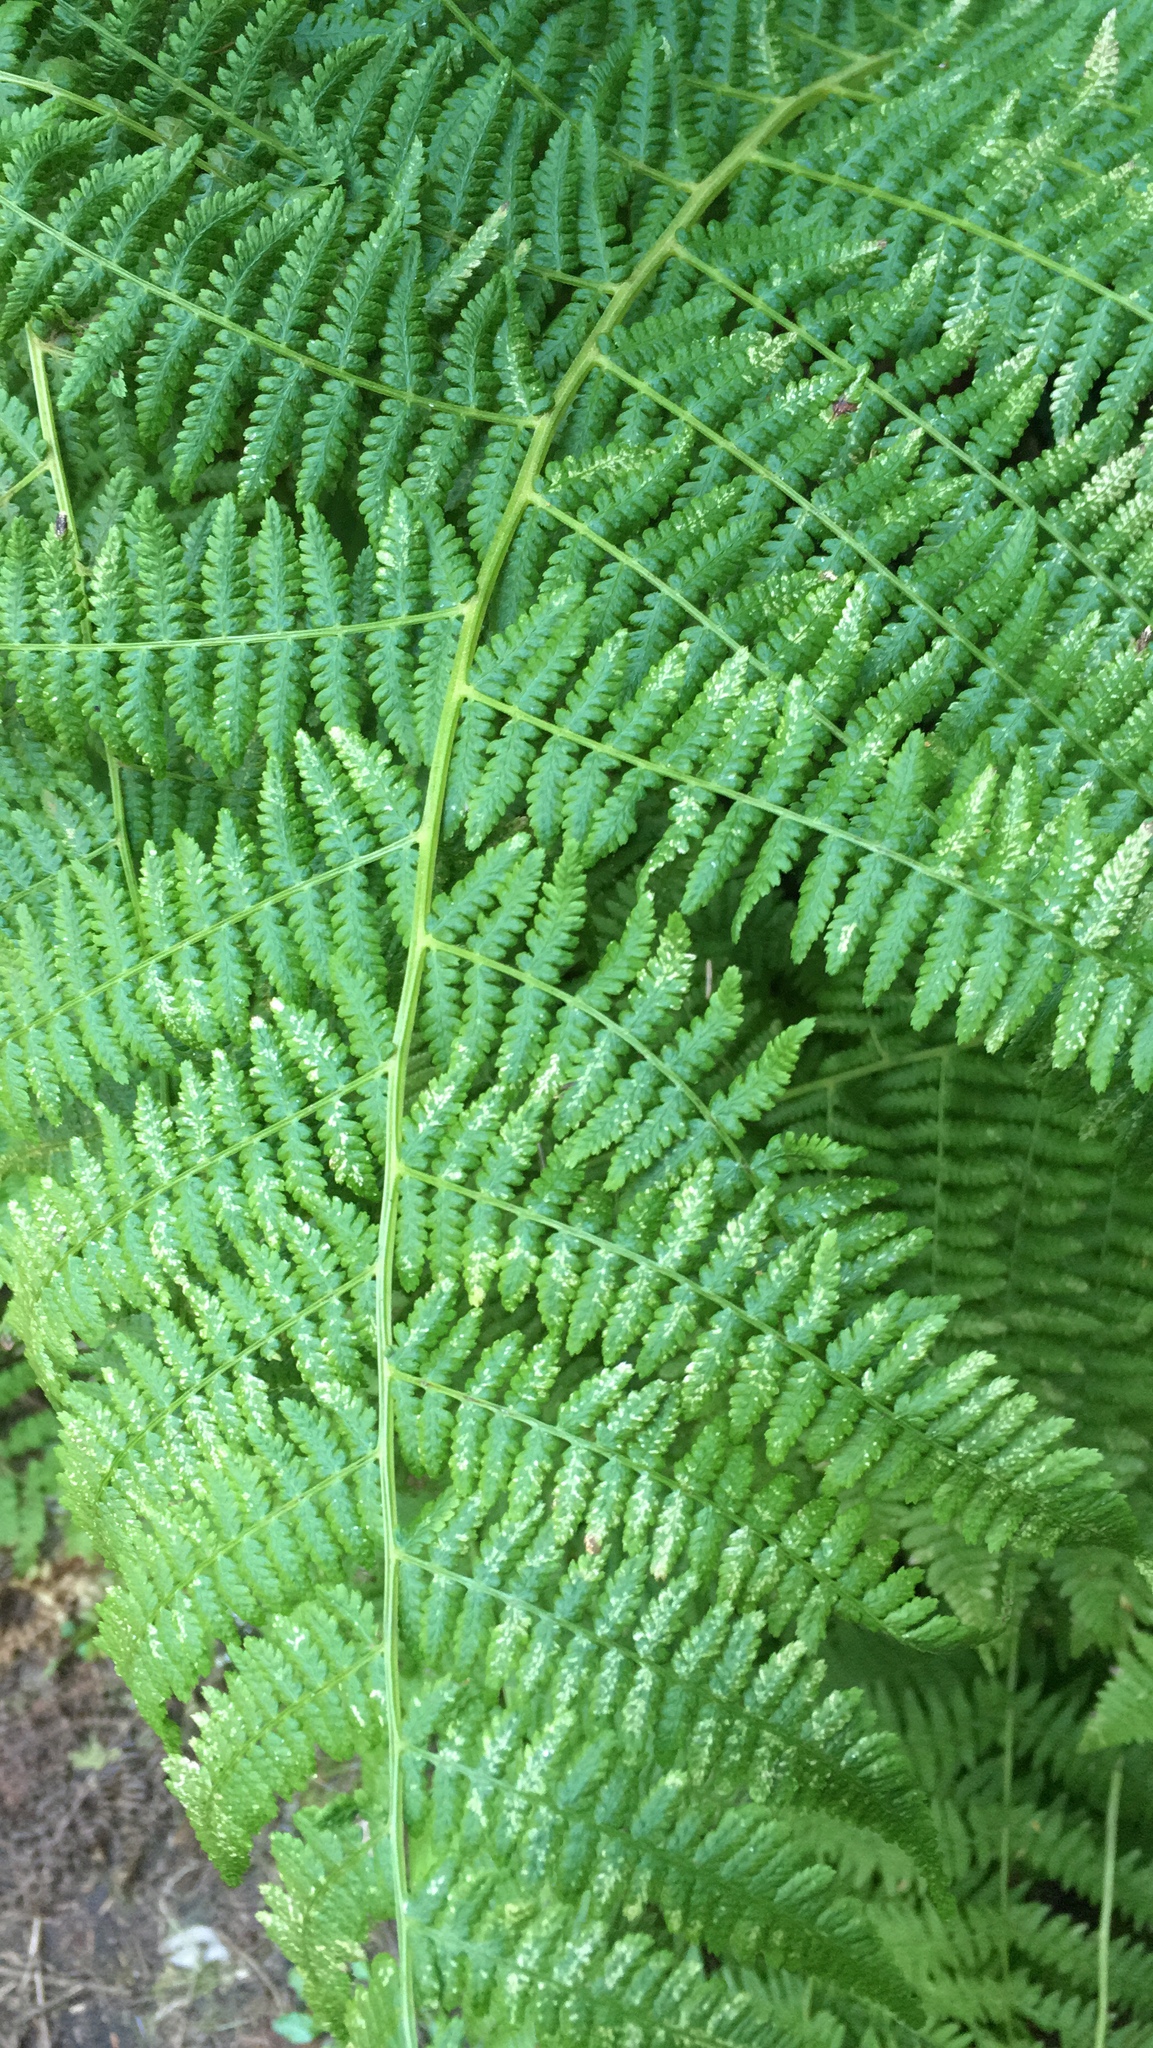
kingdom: Plantae
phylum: Tracheophyta
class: Polypodiopsida
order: Polypodiales
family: Athyriaceae
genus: Athyrium
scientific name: Athyrium filix-femina
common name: Lady fern
